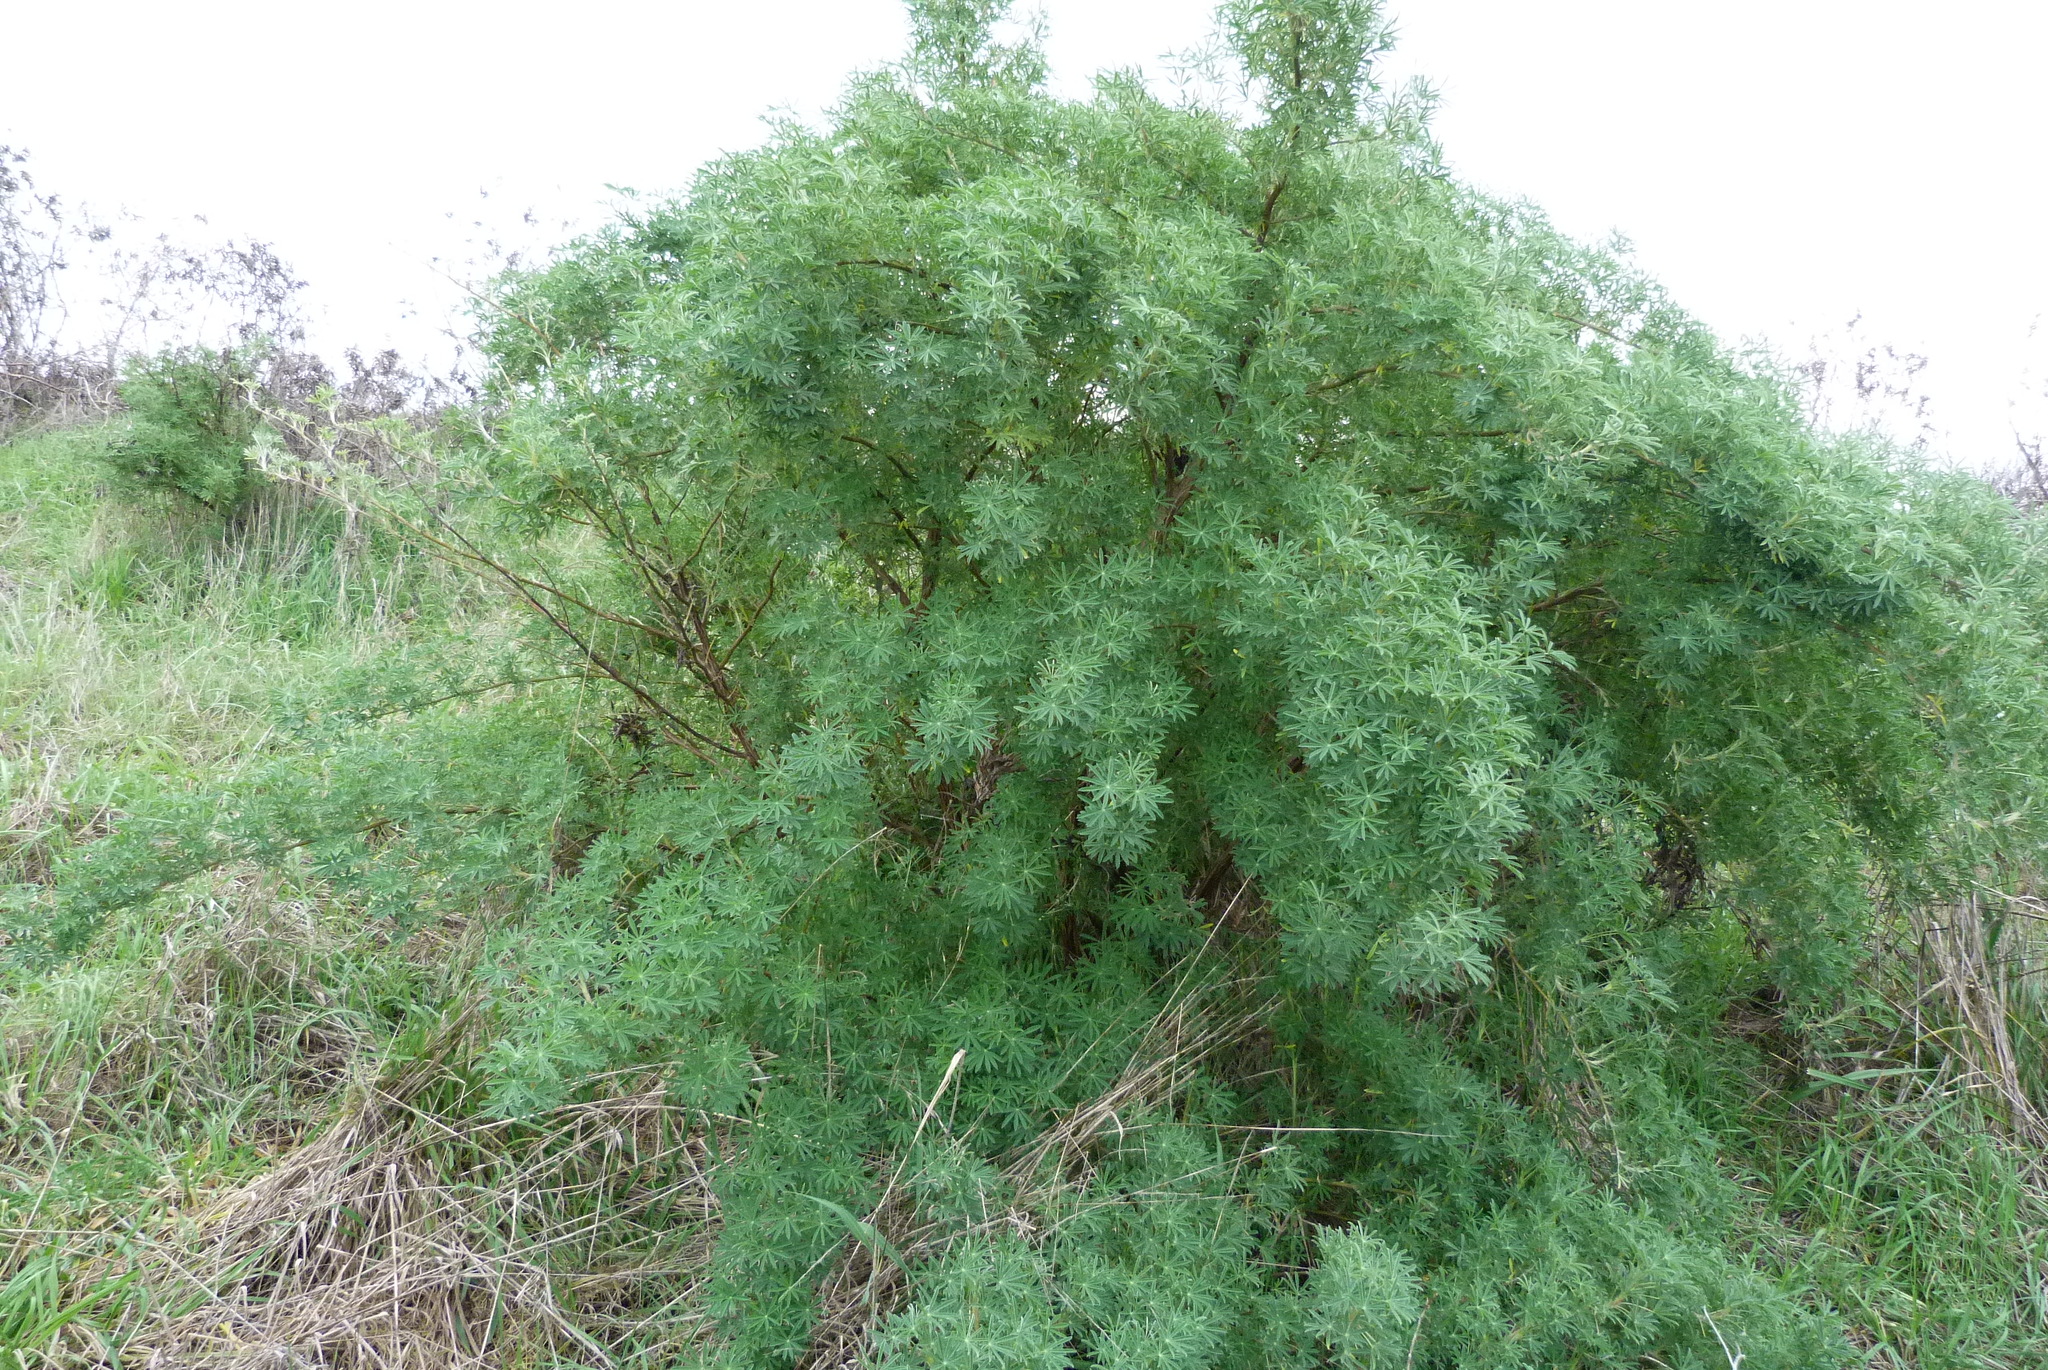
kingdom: Plantae
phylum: Tracheophyta
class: Magnoliopsida
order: Fabales
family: Fabaceae
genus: Lupinus
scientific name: Lupinus arboreus
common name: Yellow bush lupine
